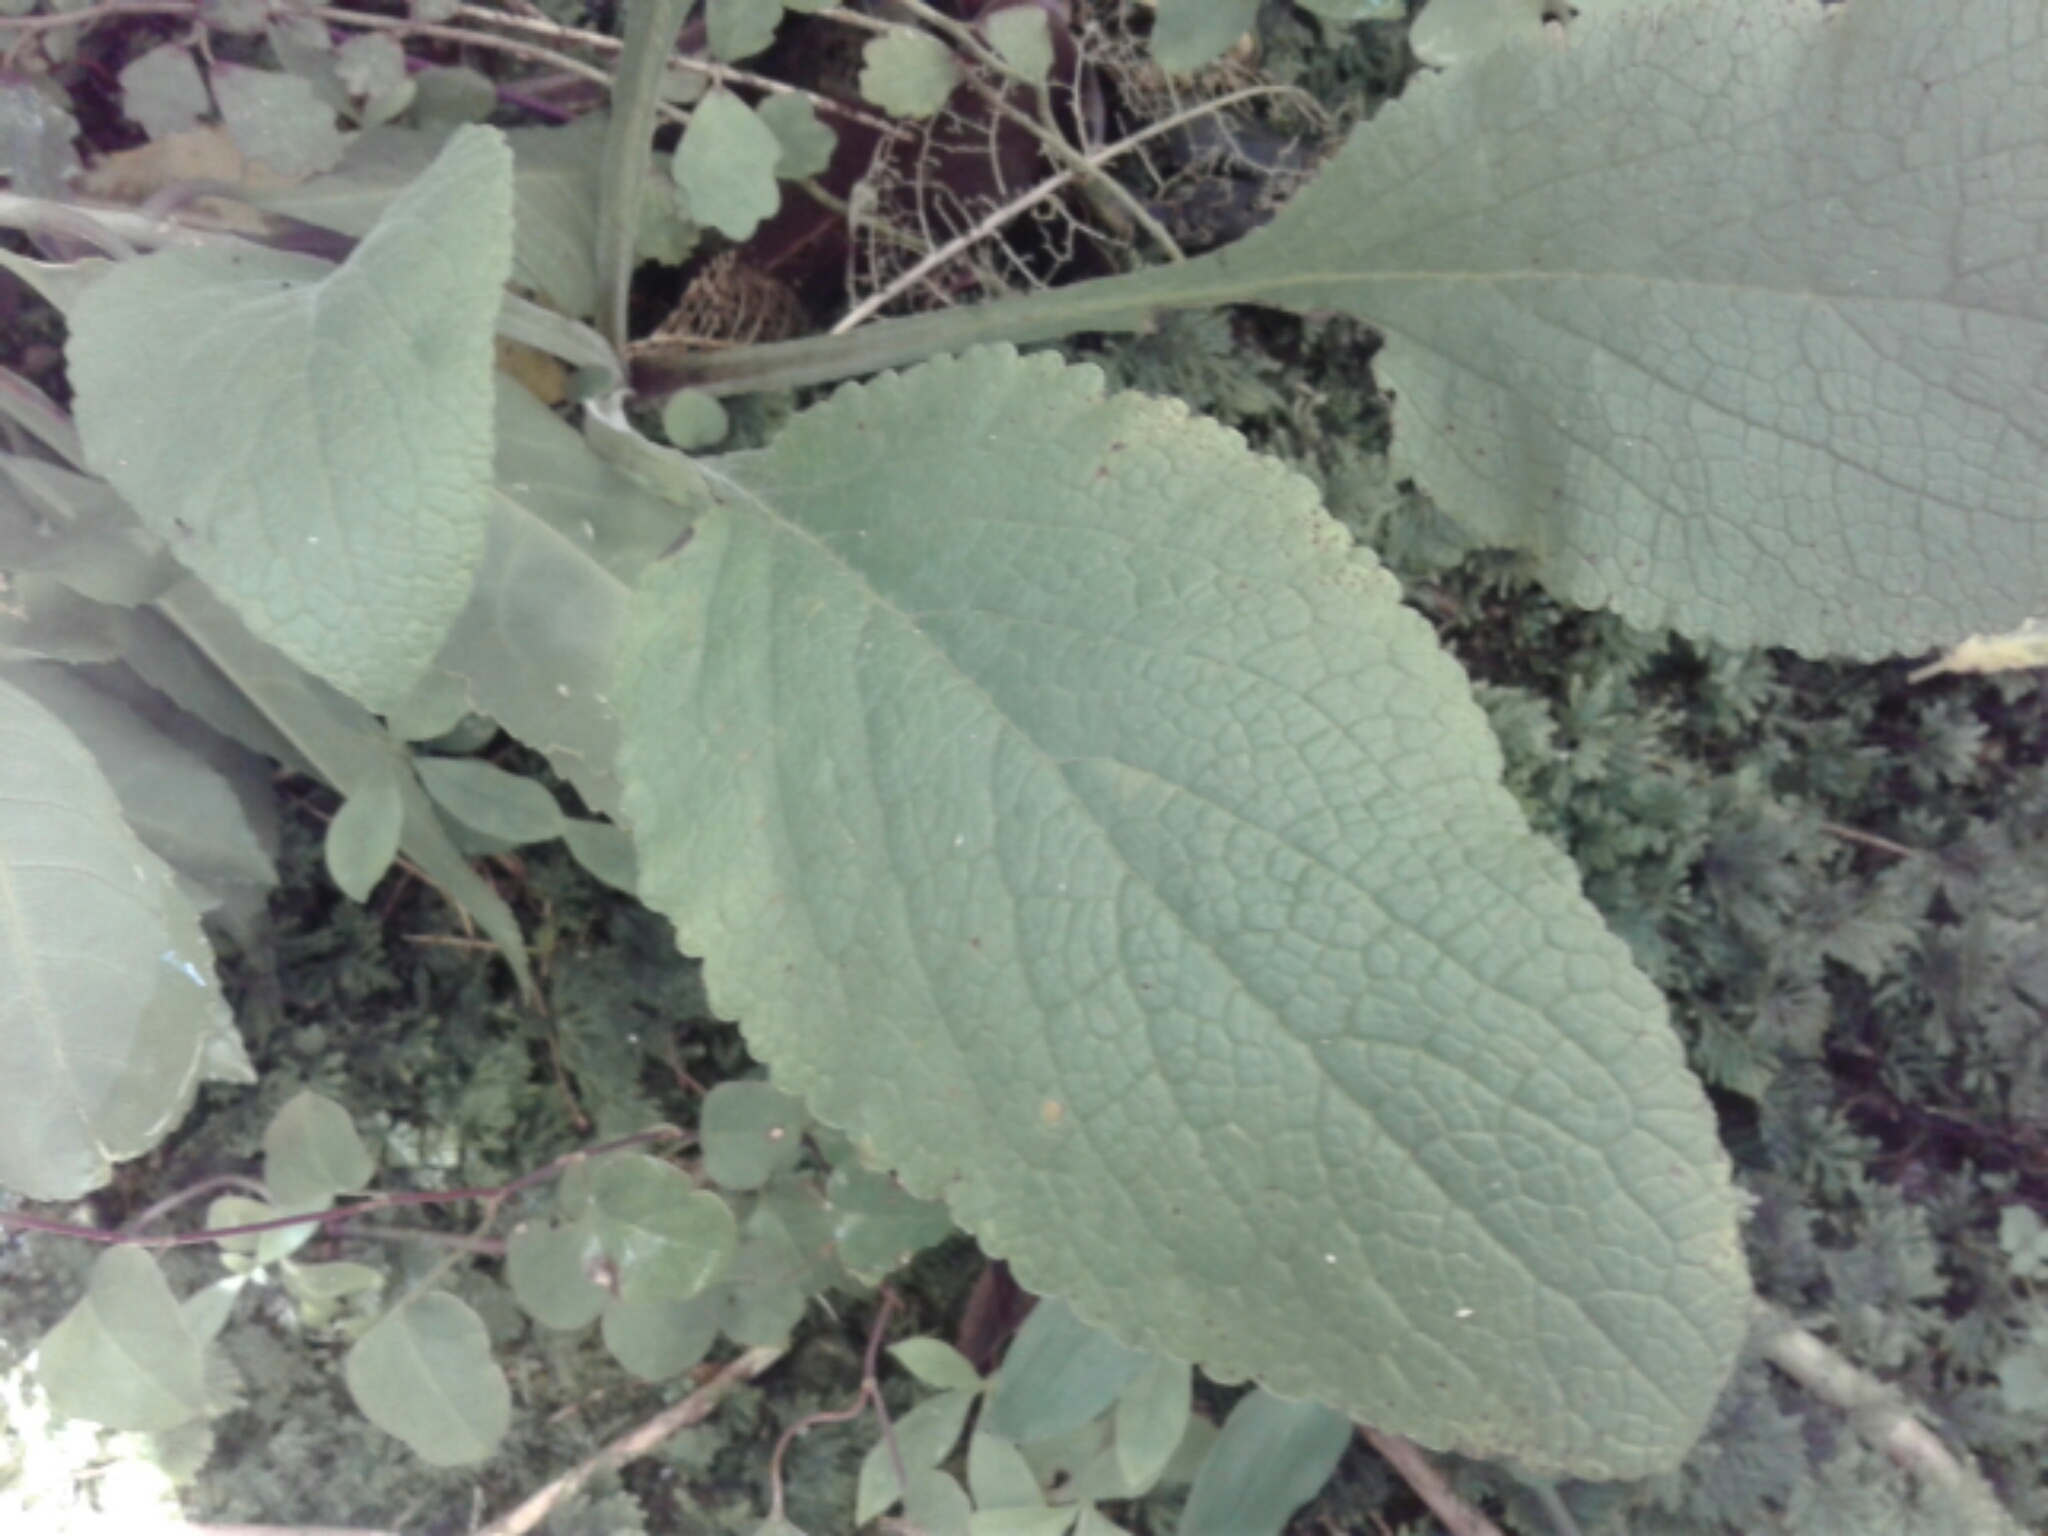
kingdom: Plantae
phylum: Tracheophyta
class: Magnoliopsida
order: Lamiales
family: Plantaginaceae
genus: Digitalis
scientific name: Digitalis purpurea
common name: Foxglove
